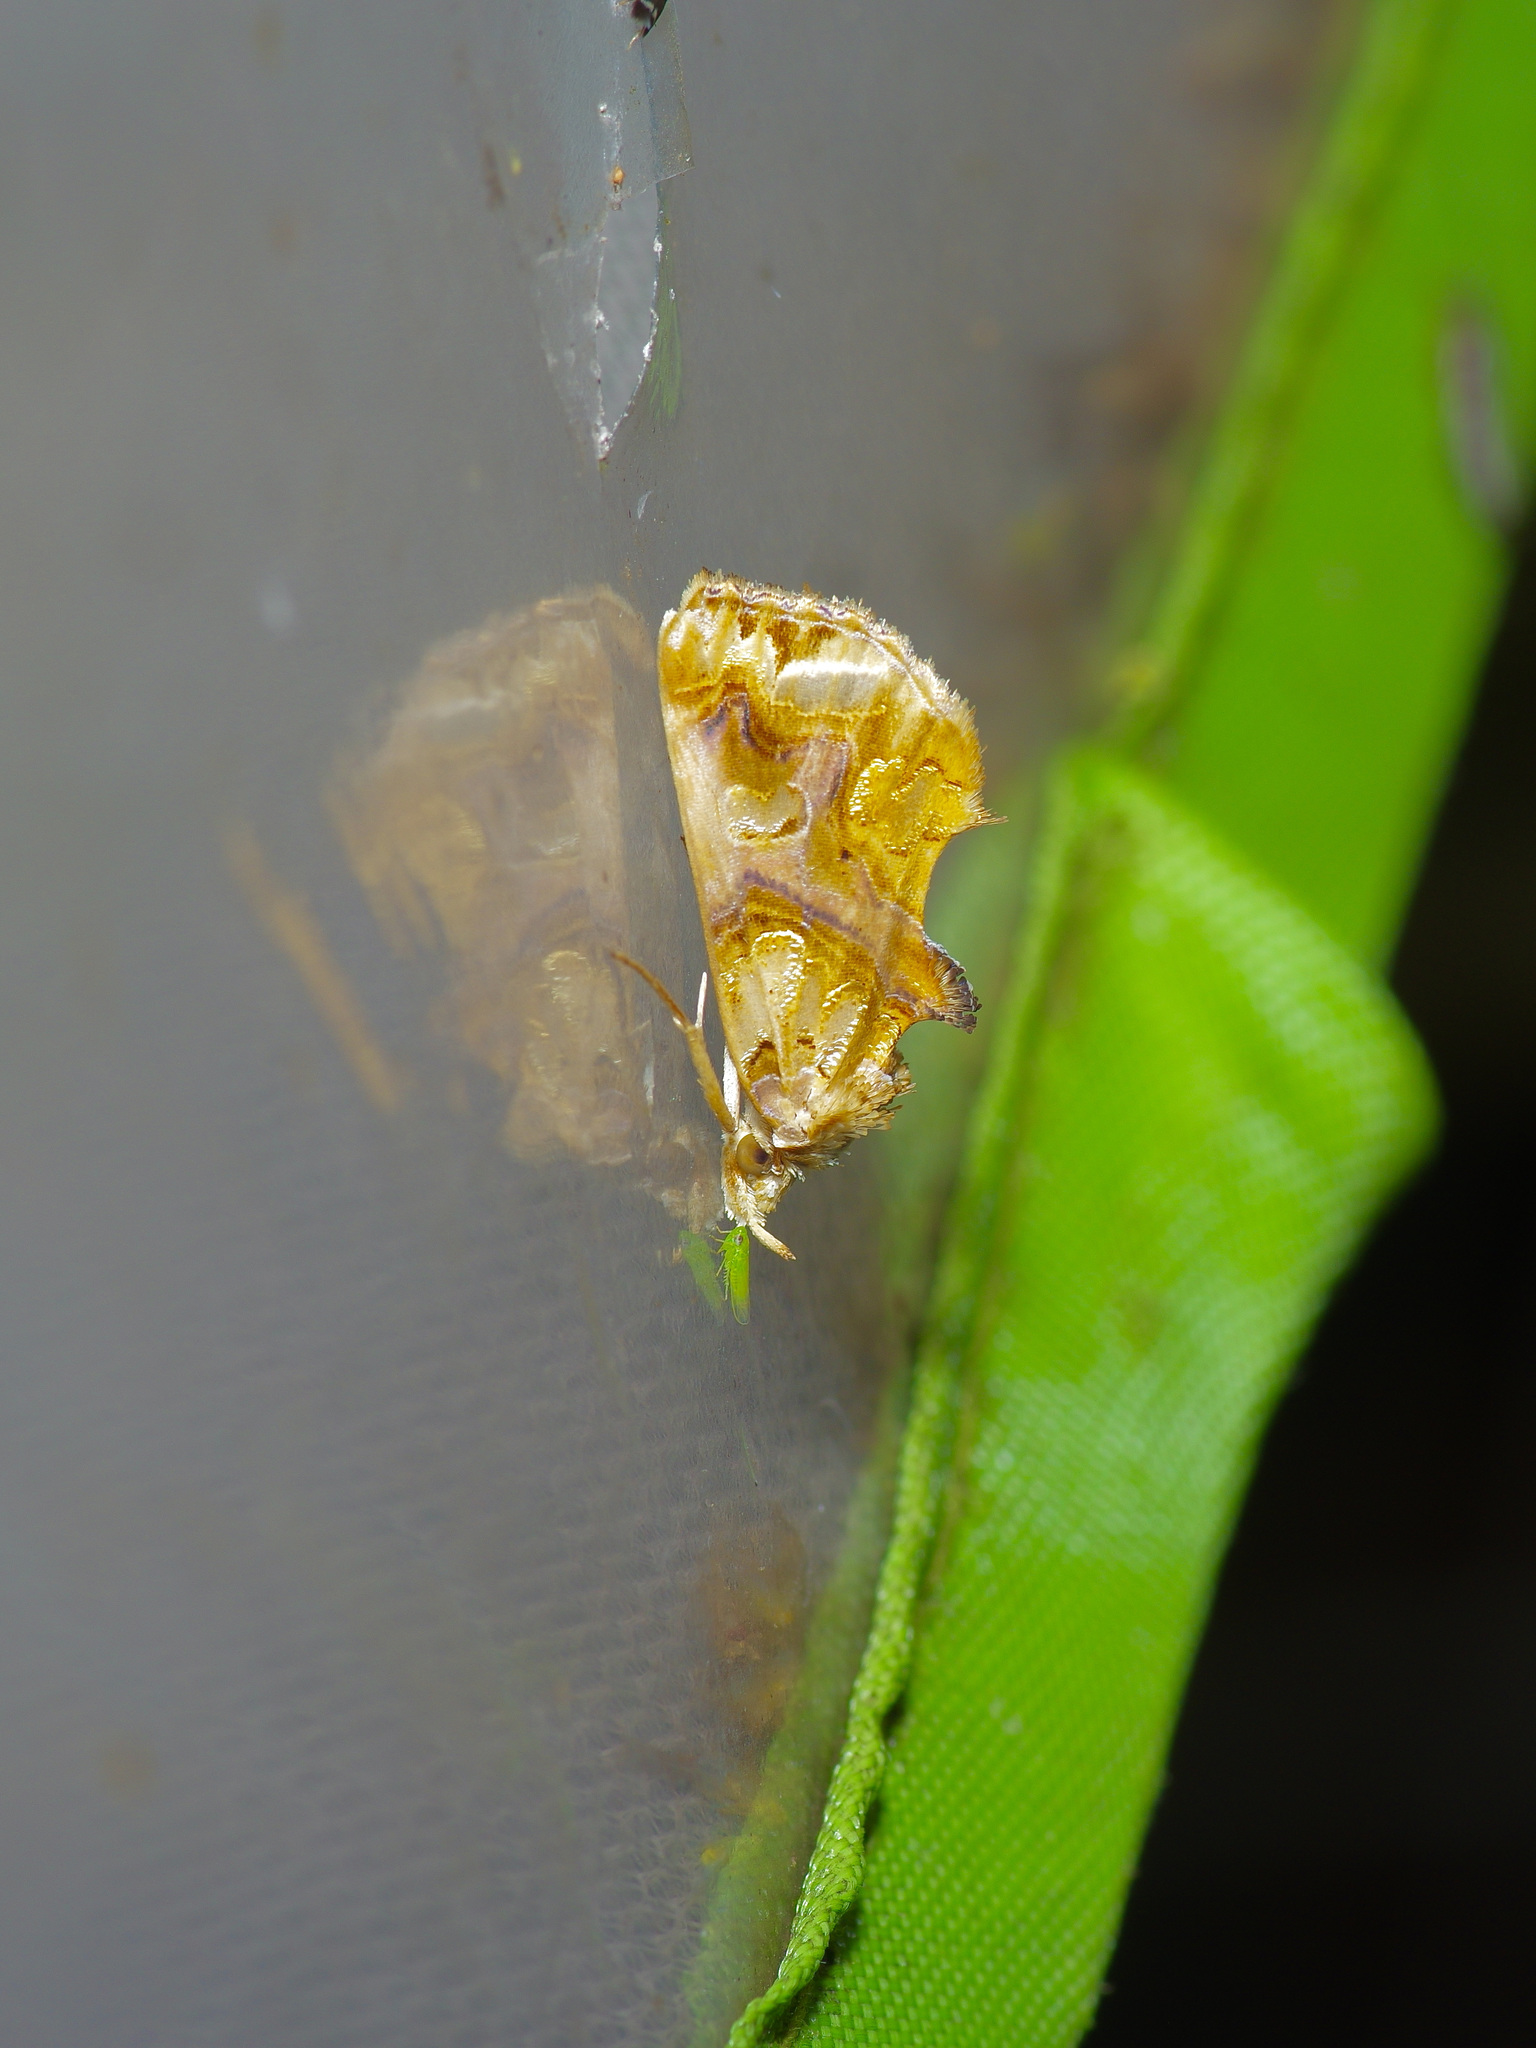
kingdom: Animalia
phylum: Arthropoda
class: Insecta
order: Lepidoptera
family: Erebidae
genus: Plusiodonta
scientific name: Plusiodonta compressipalpis
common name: Moonseed moth
